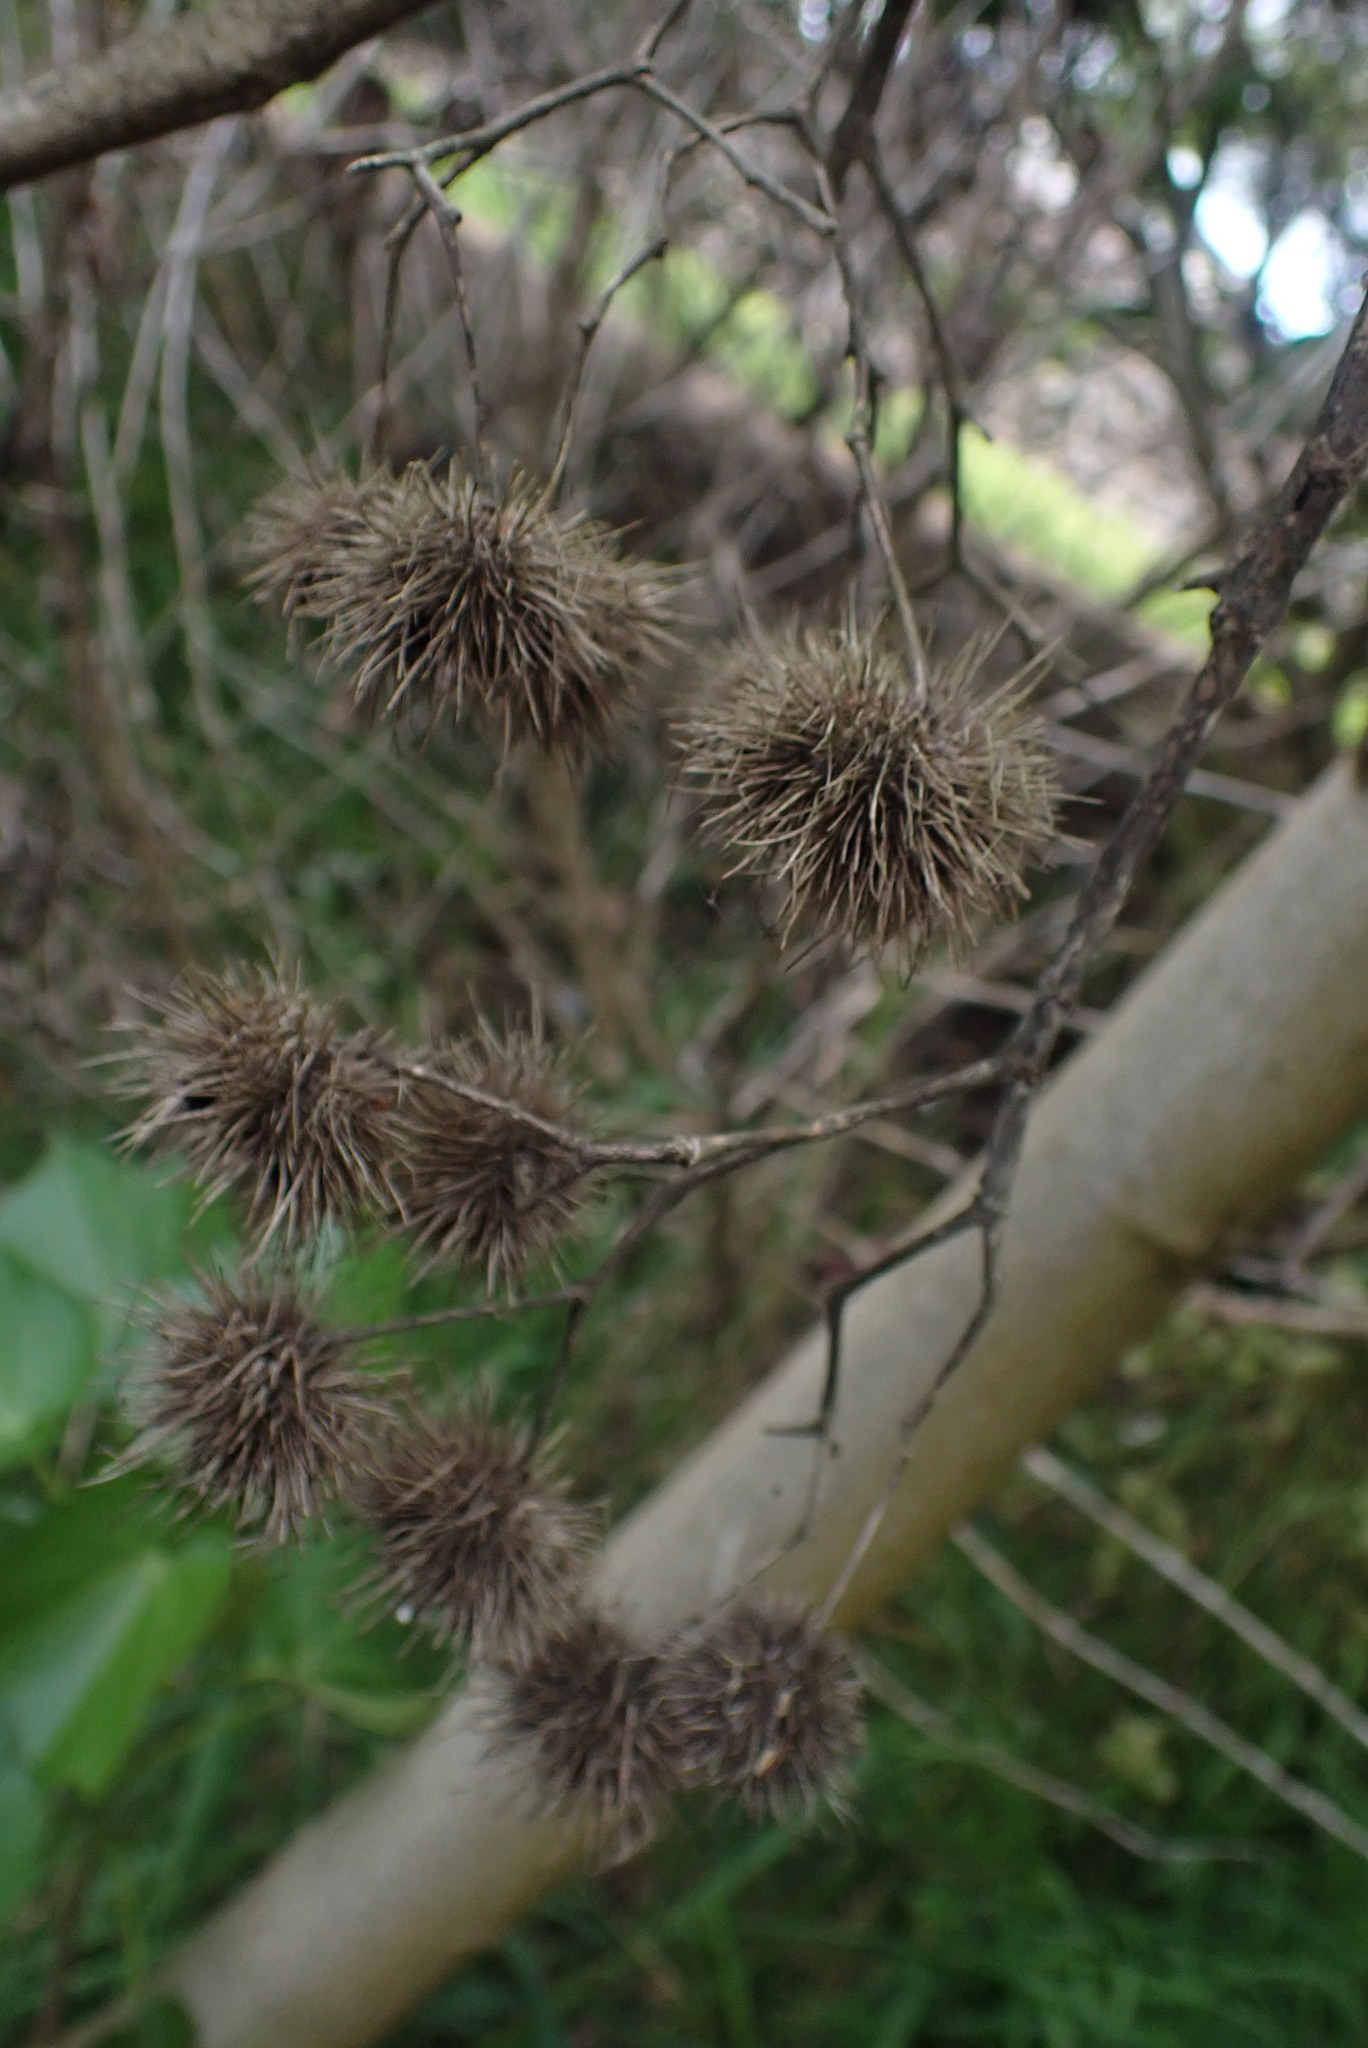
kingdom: Plantae
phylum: Tracheophyta
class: Magnoliopsida
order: Malvales
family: Malvaceae
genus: Entelea
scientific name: Entelea arborescens
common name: New zealand-mulberry
